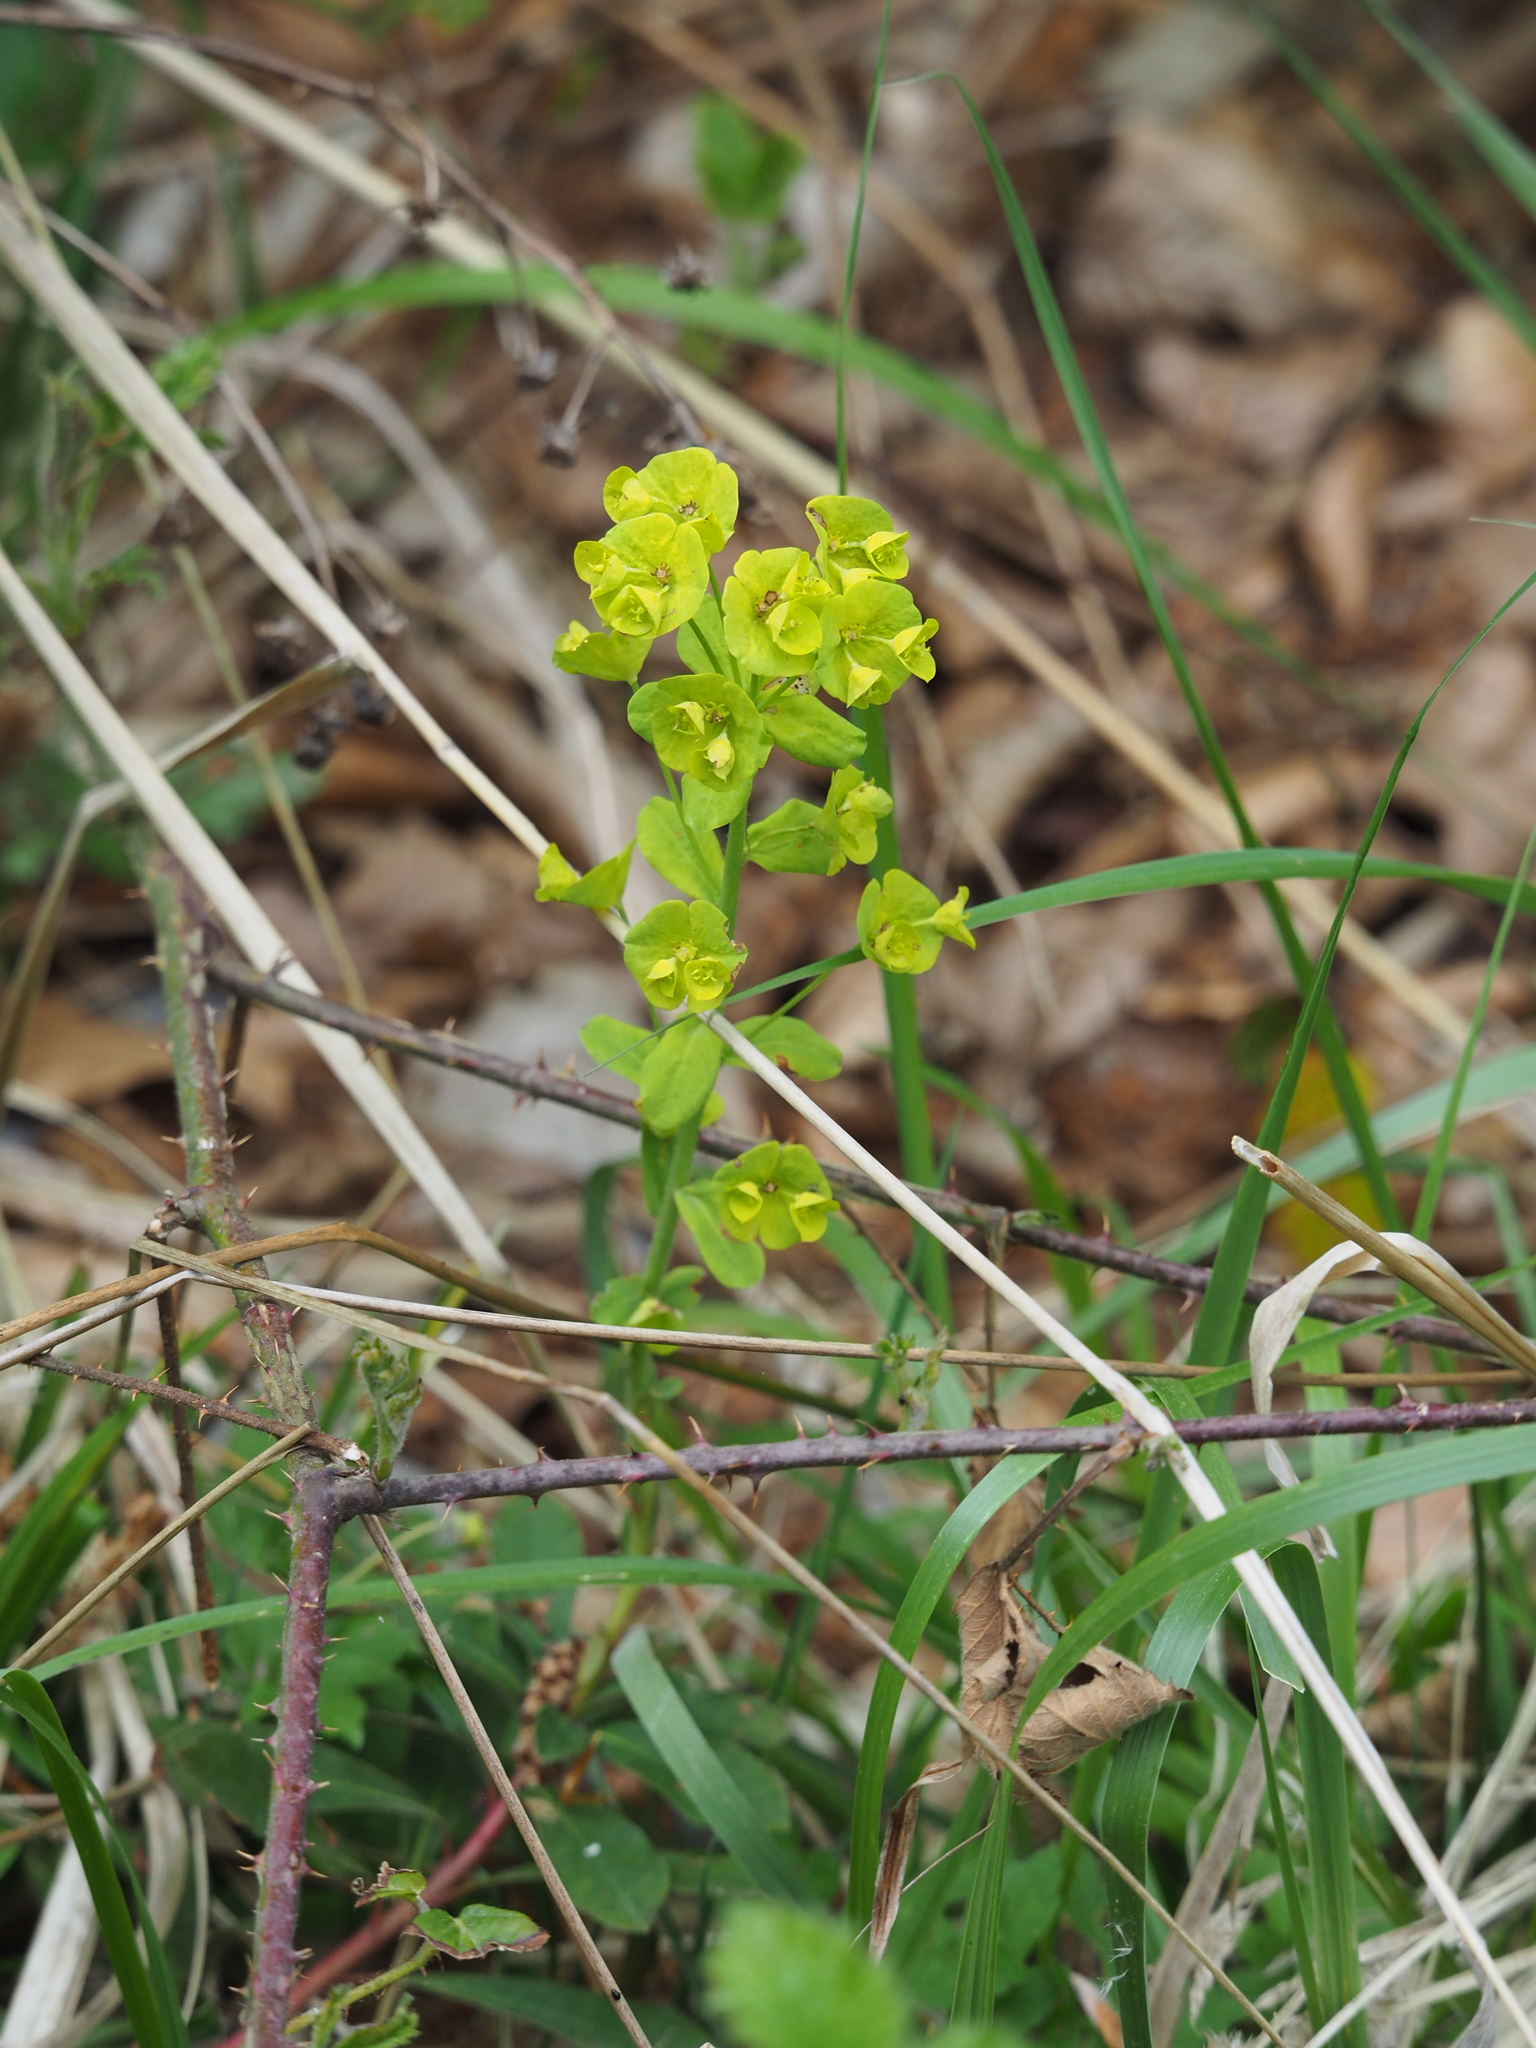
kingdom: Plantae
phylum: Tracheophyta
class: Magnoliopsida
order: Malpighiales
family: Euphorbiaceae
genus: Euphorbia
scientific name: Euphorbia amygdaloides
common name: Wood spurge
